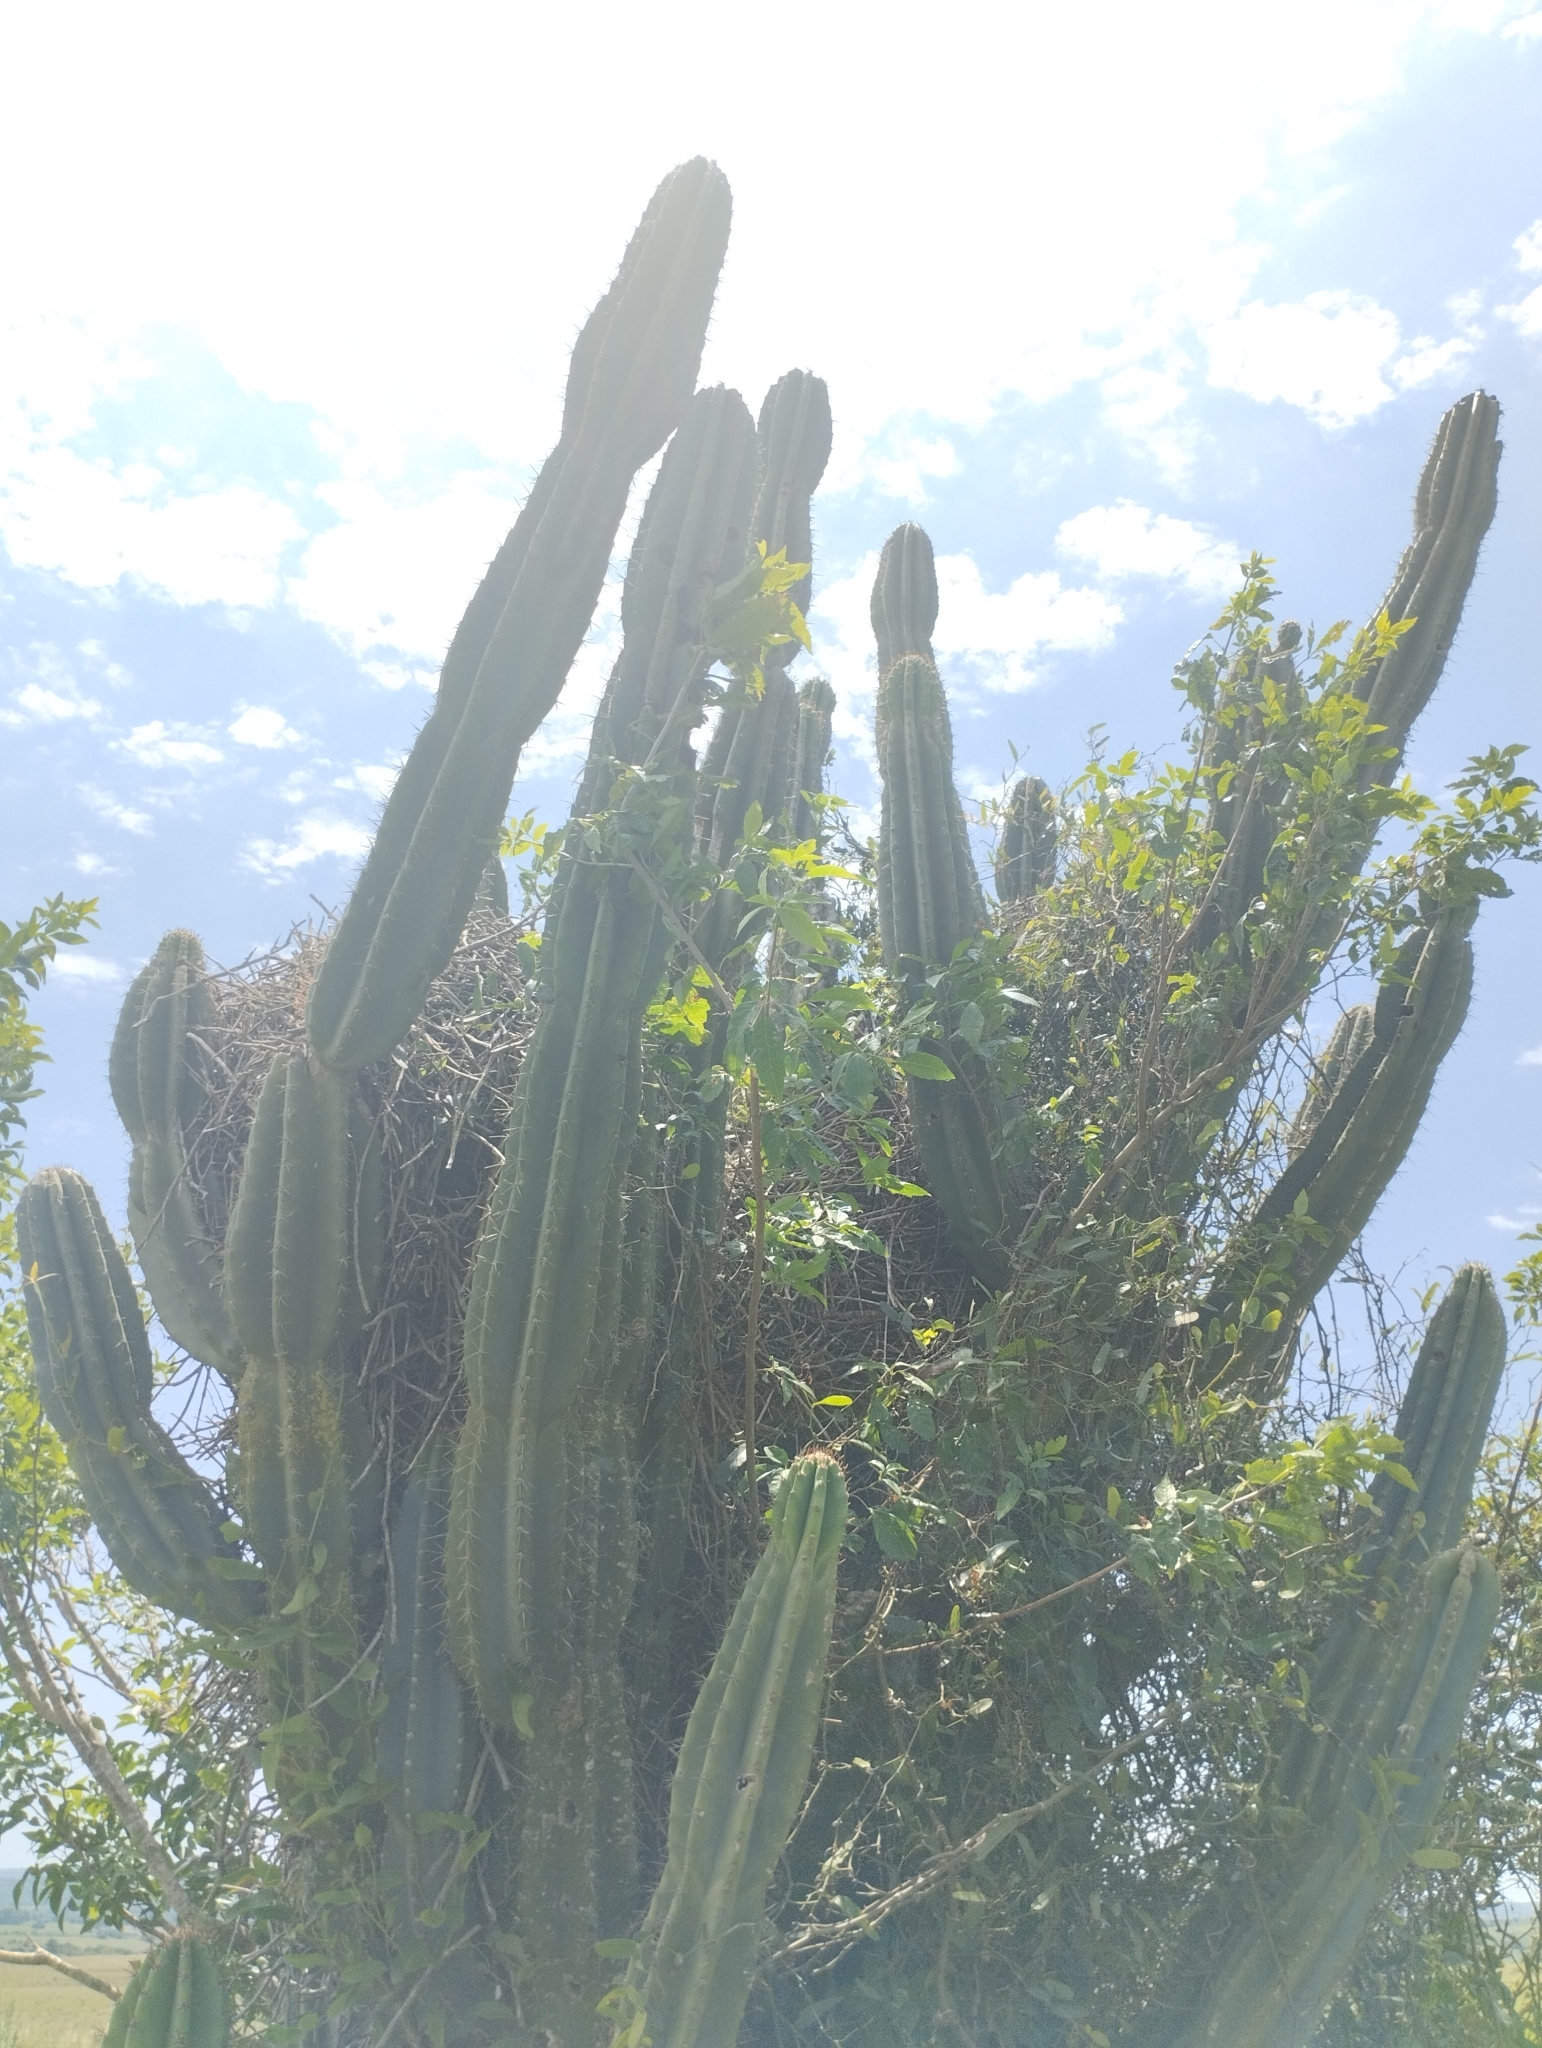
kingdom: Plantae
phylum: Tracheophyta
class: Magnoliopsida
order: Caryophyllales
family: Cactaceae
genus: Cereus
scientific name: Cereus hildmannianus
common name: Hedge cactus
